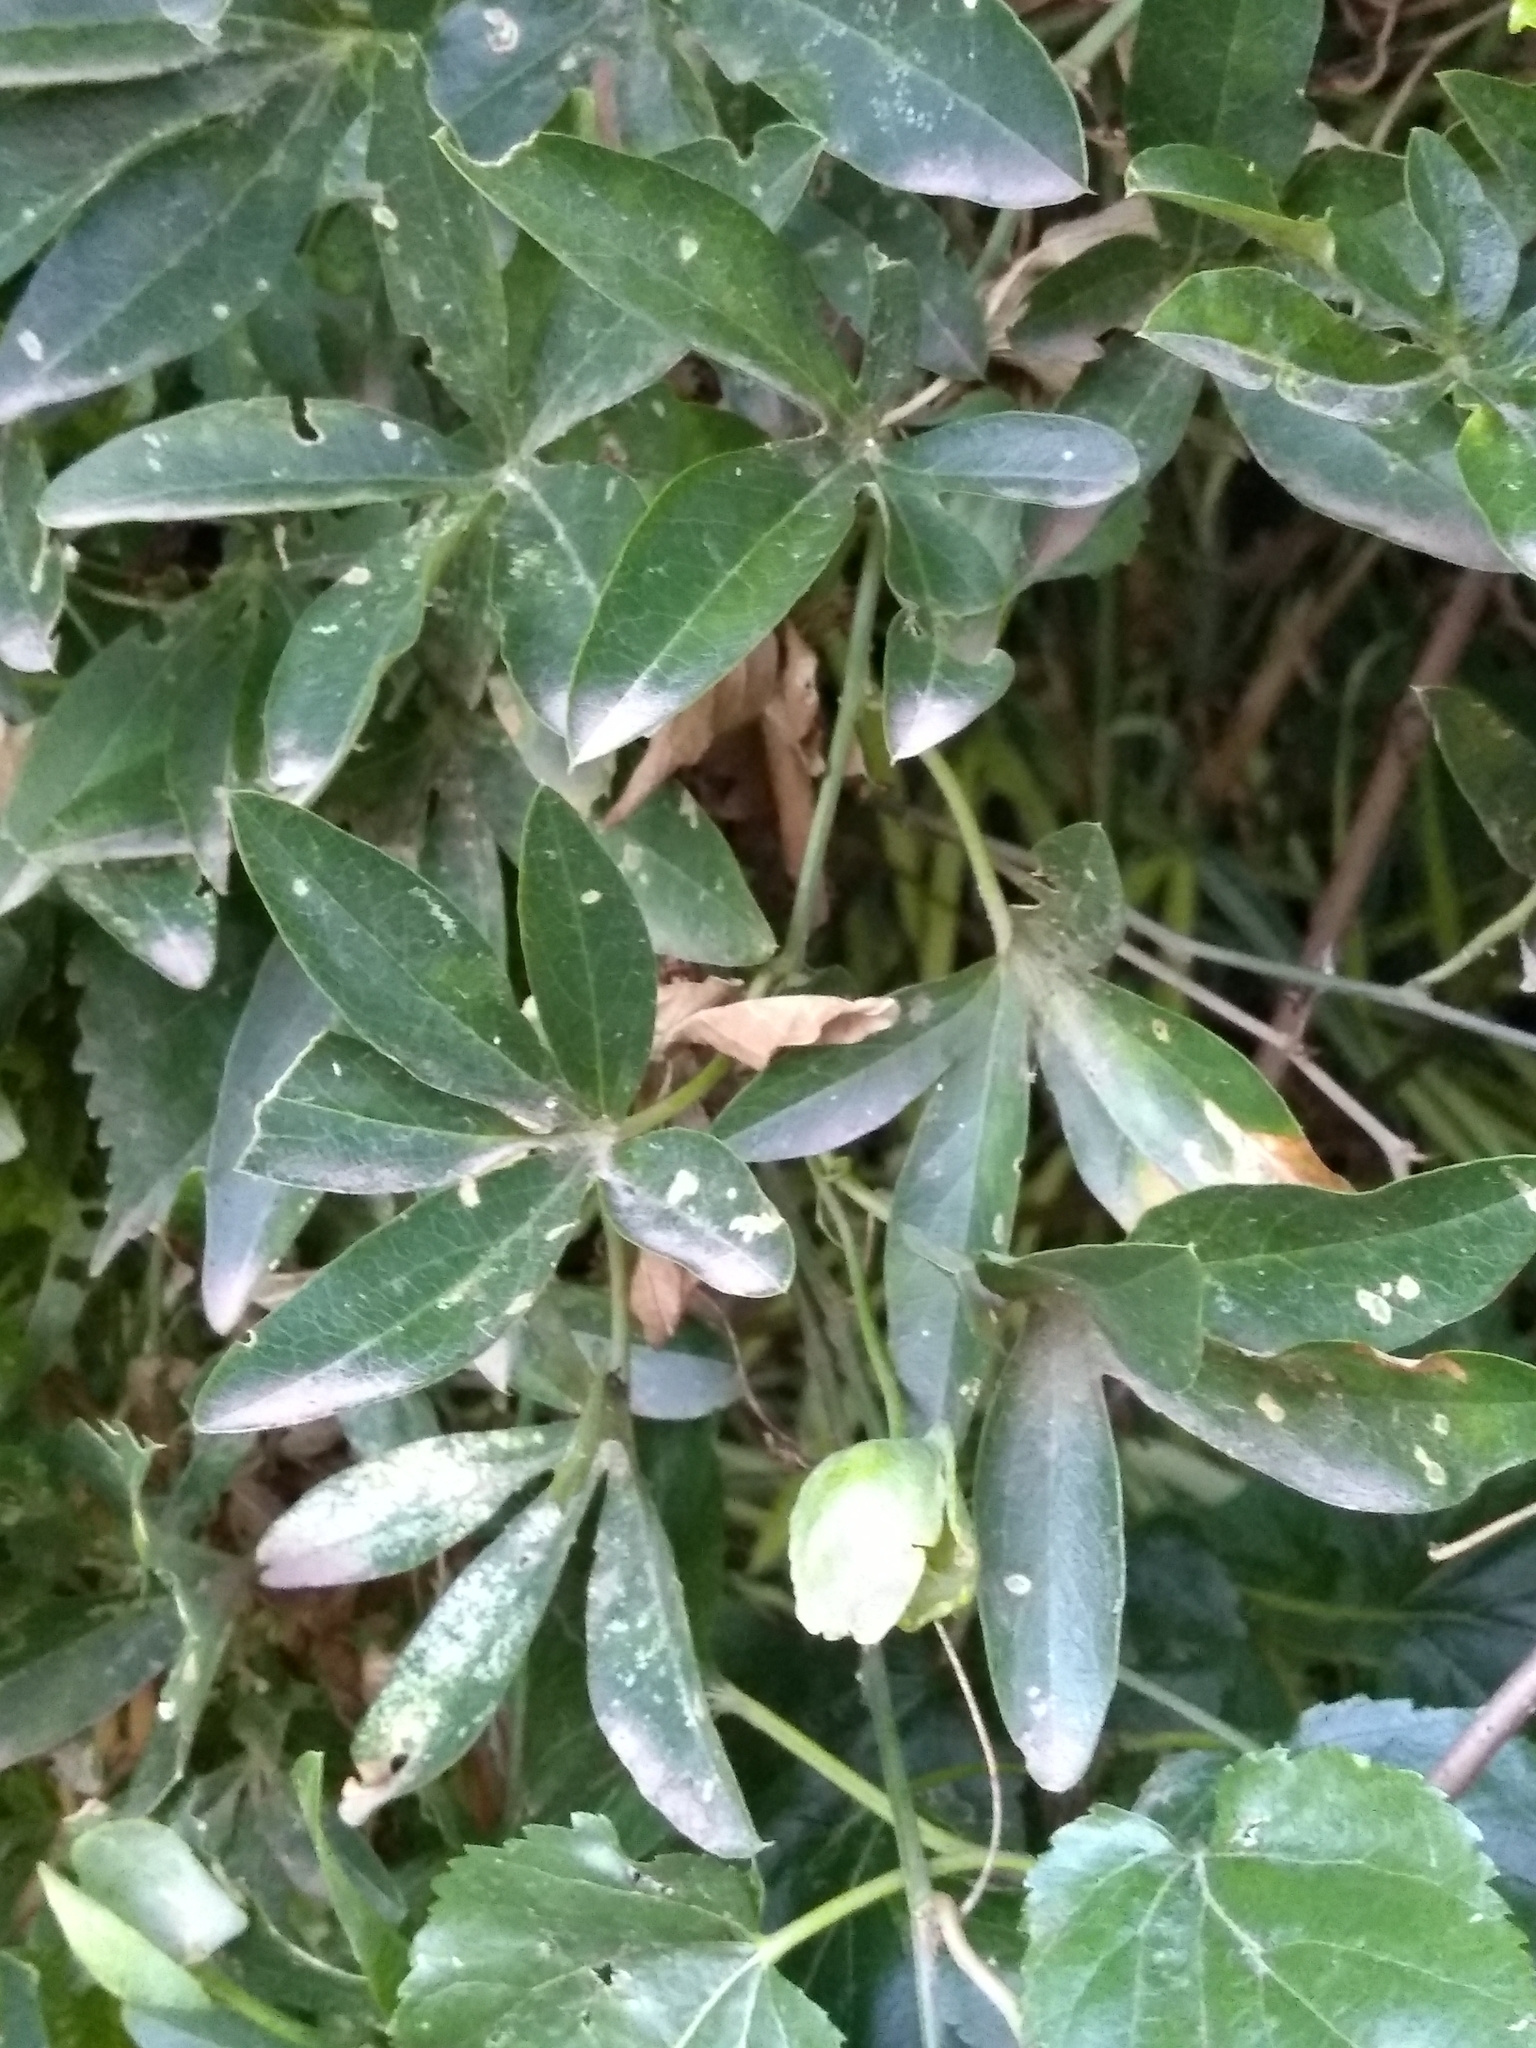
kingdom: Plantae
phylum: Tracheophyta
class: Magnoliopsida
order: Malpighiales
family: Passifloraceae
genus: Passiflora
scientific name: Passiflora caerulea
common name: Blue passionflower
